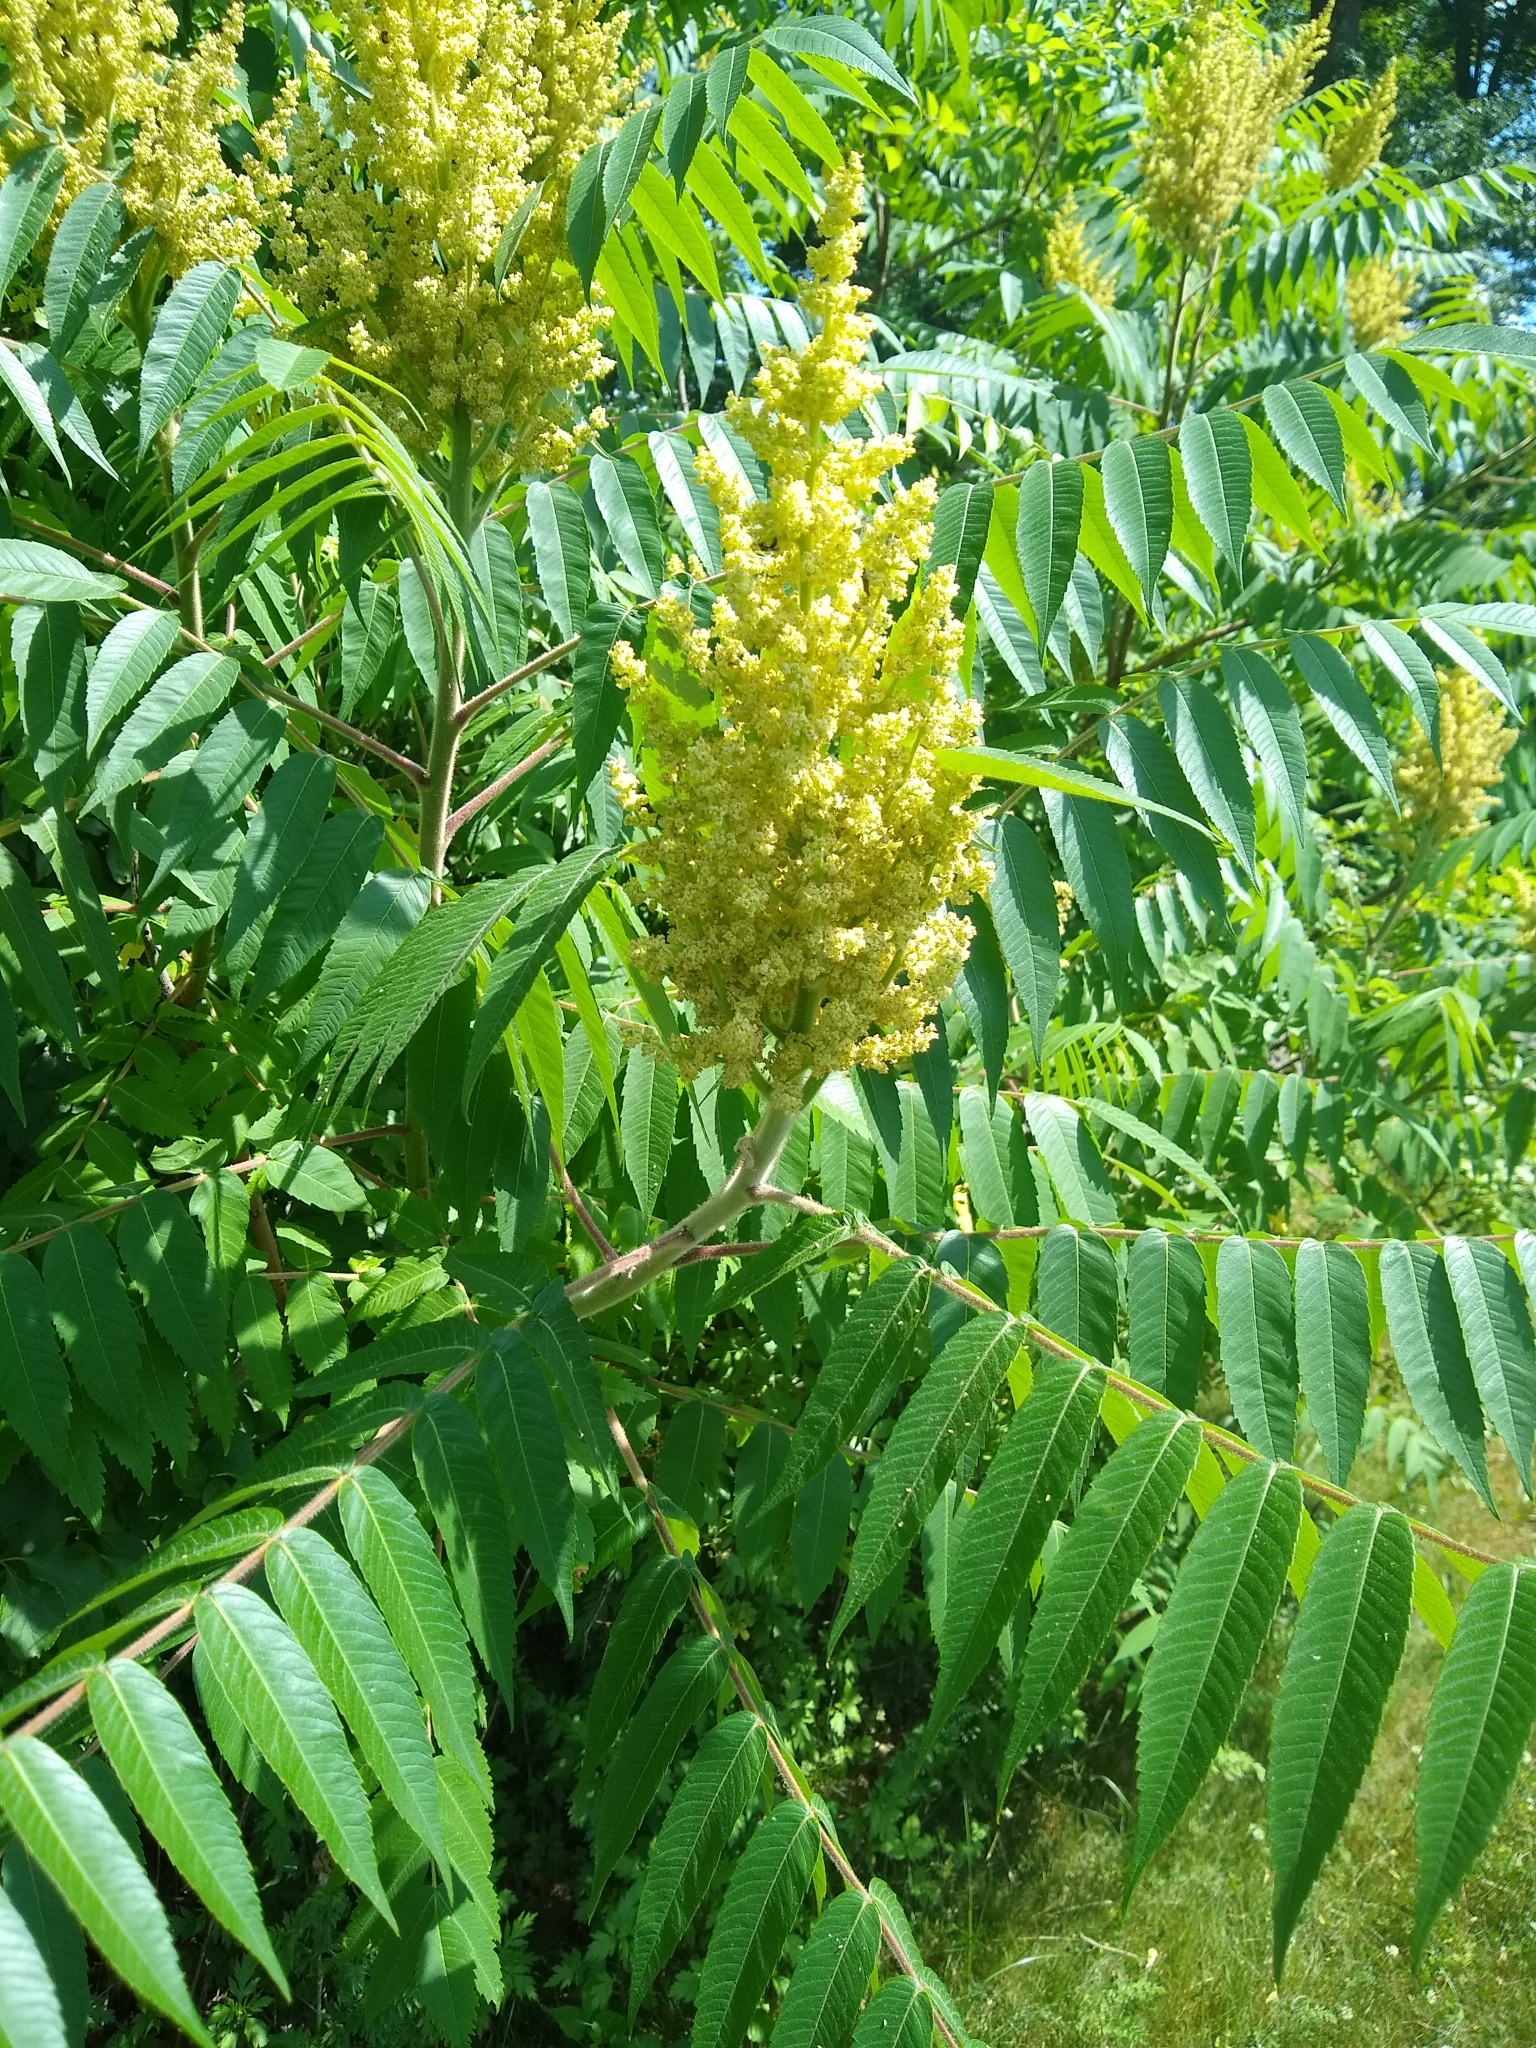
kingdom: Plantae
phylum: Tracheophyta
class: Magnoliopsida
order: Sapindales
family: Anacardiaceae
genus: Rhus
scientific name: Rhus typhina
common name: Staghorn sumac
